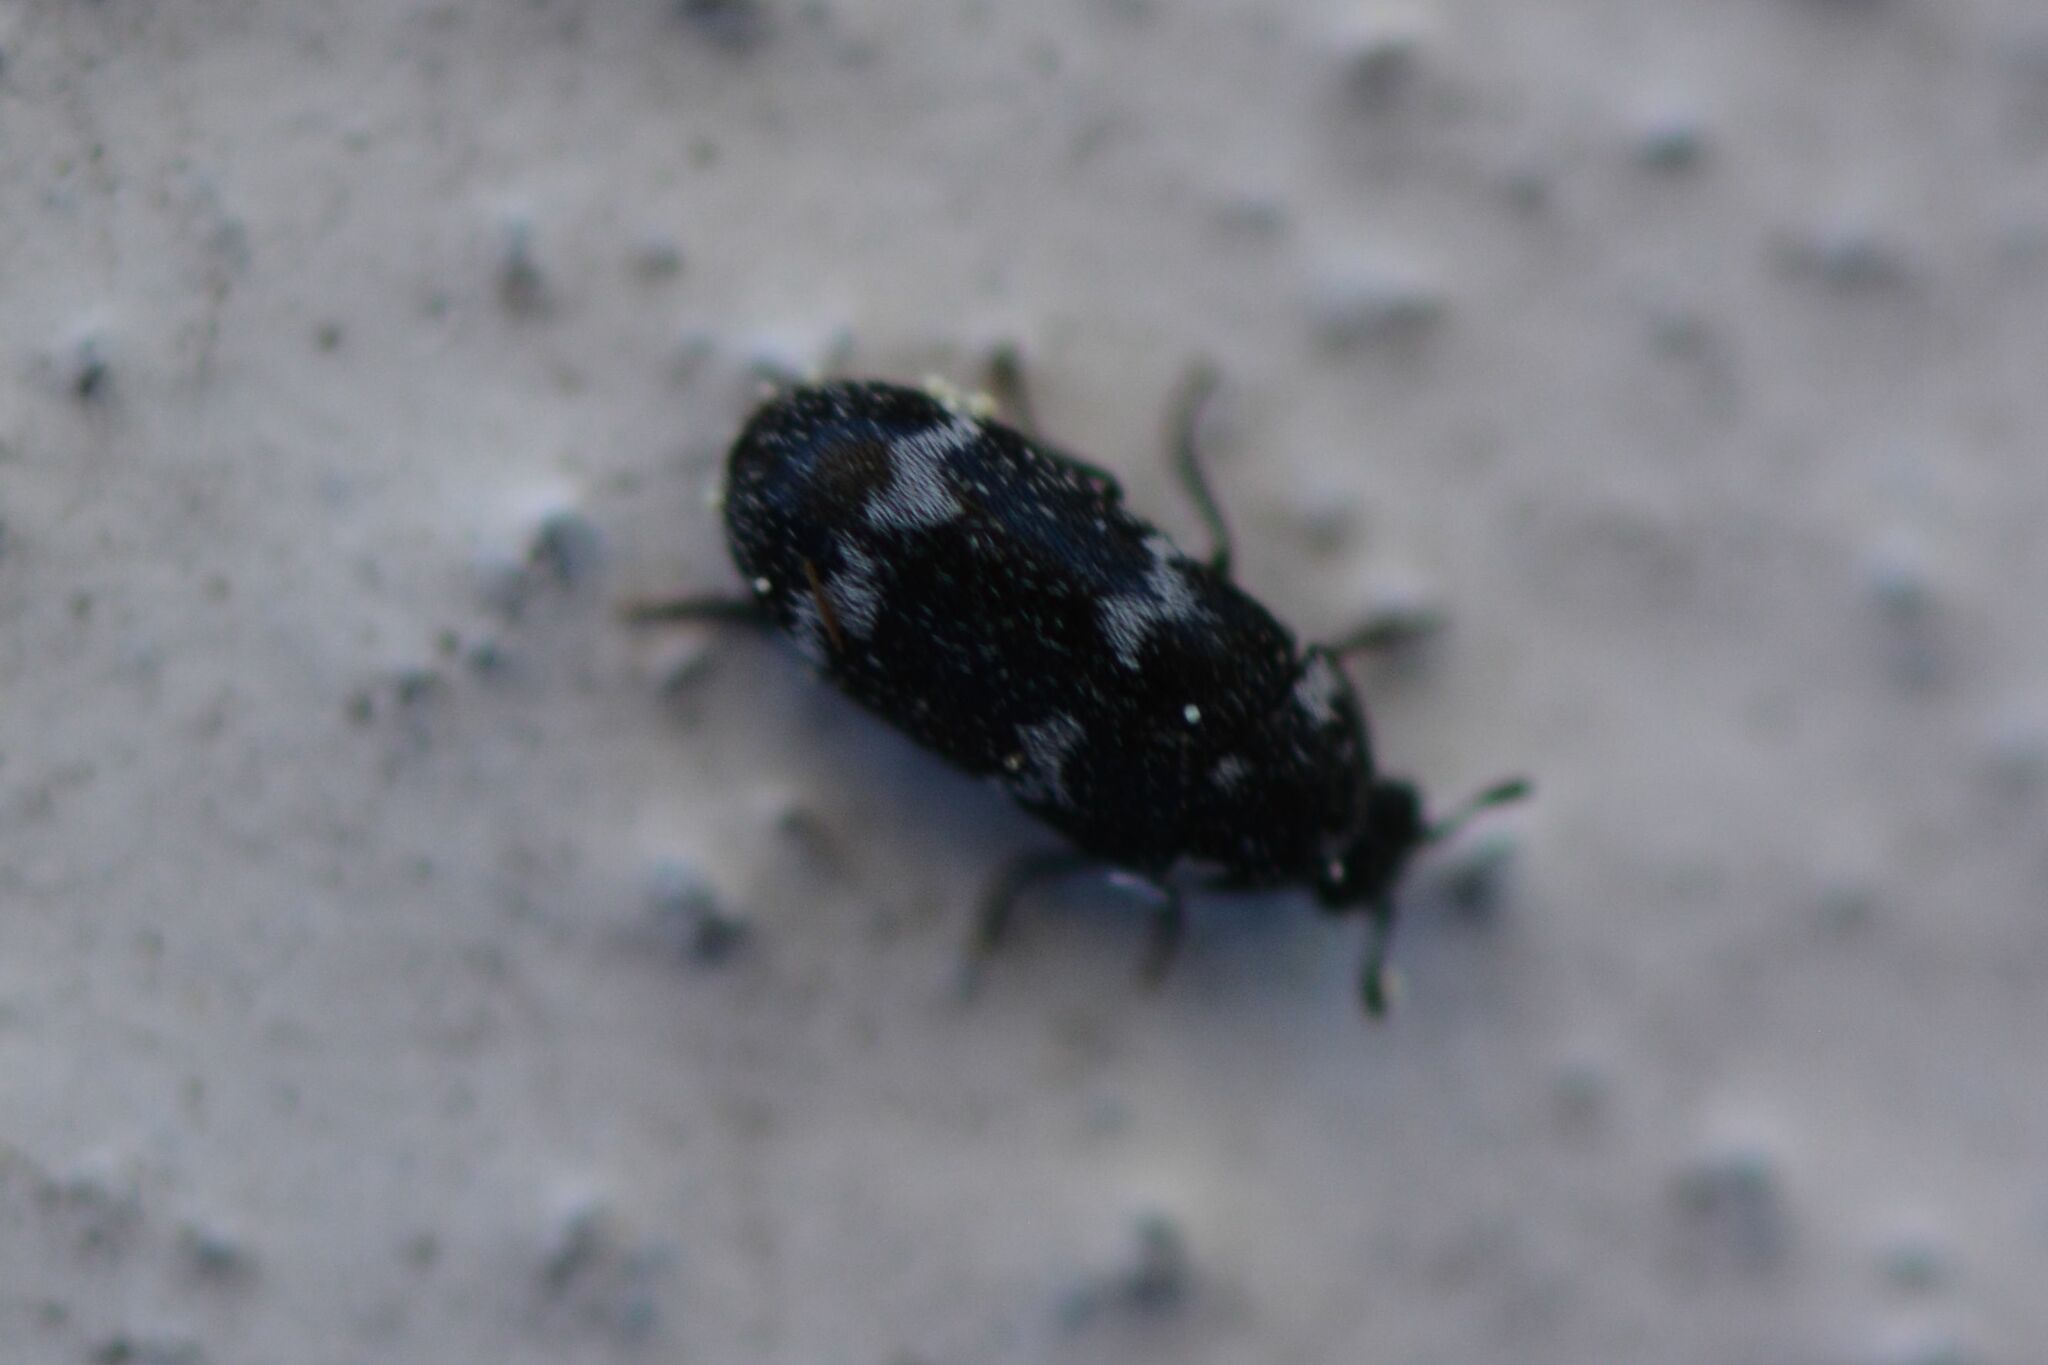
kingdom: Animalia
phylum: Arthropoda
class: Insecta
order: Coleoptera
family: Dermestidae
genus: Megatoma
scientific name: Megatoma undata
